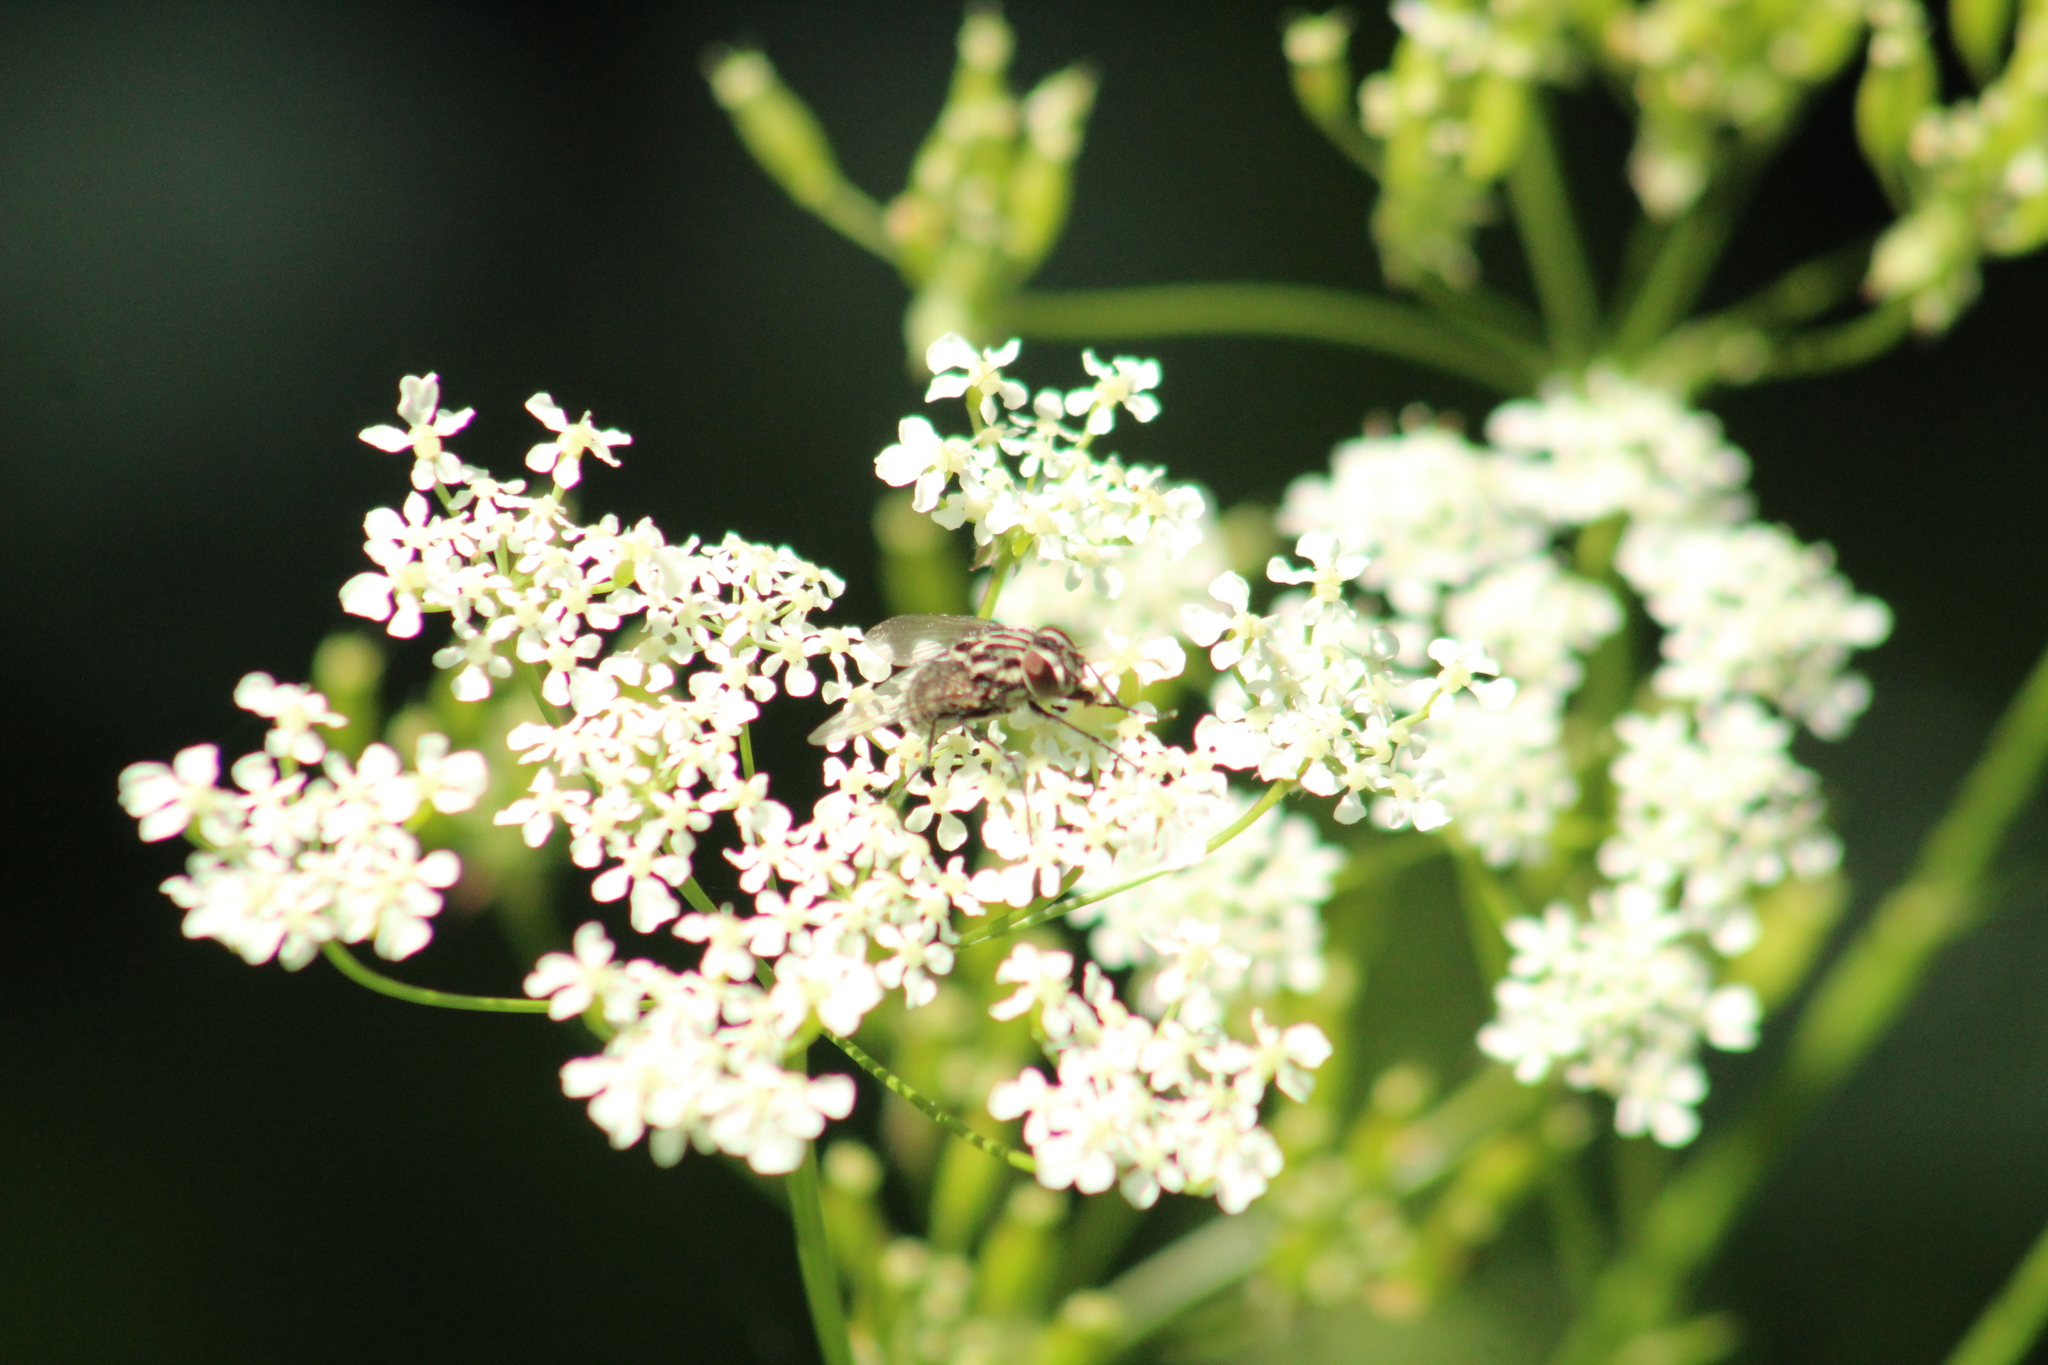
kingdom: Animalia
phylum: Arthropoda
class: Insecta
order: Diptera
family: Muscidae
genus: Graphomya
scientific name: Graphomya maculata
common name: Muscid fly
